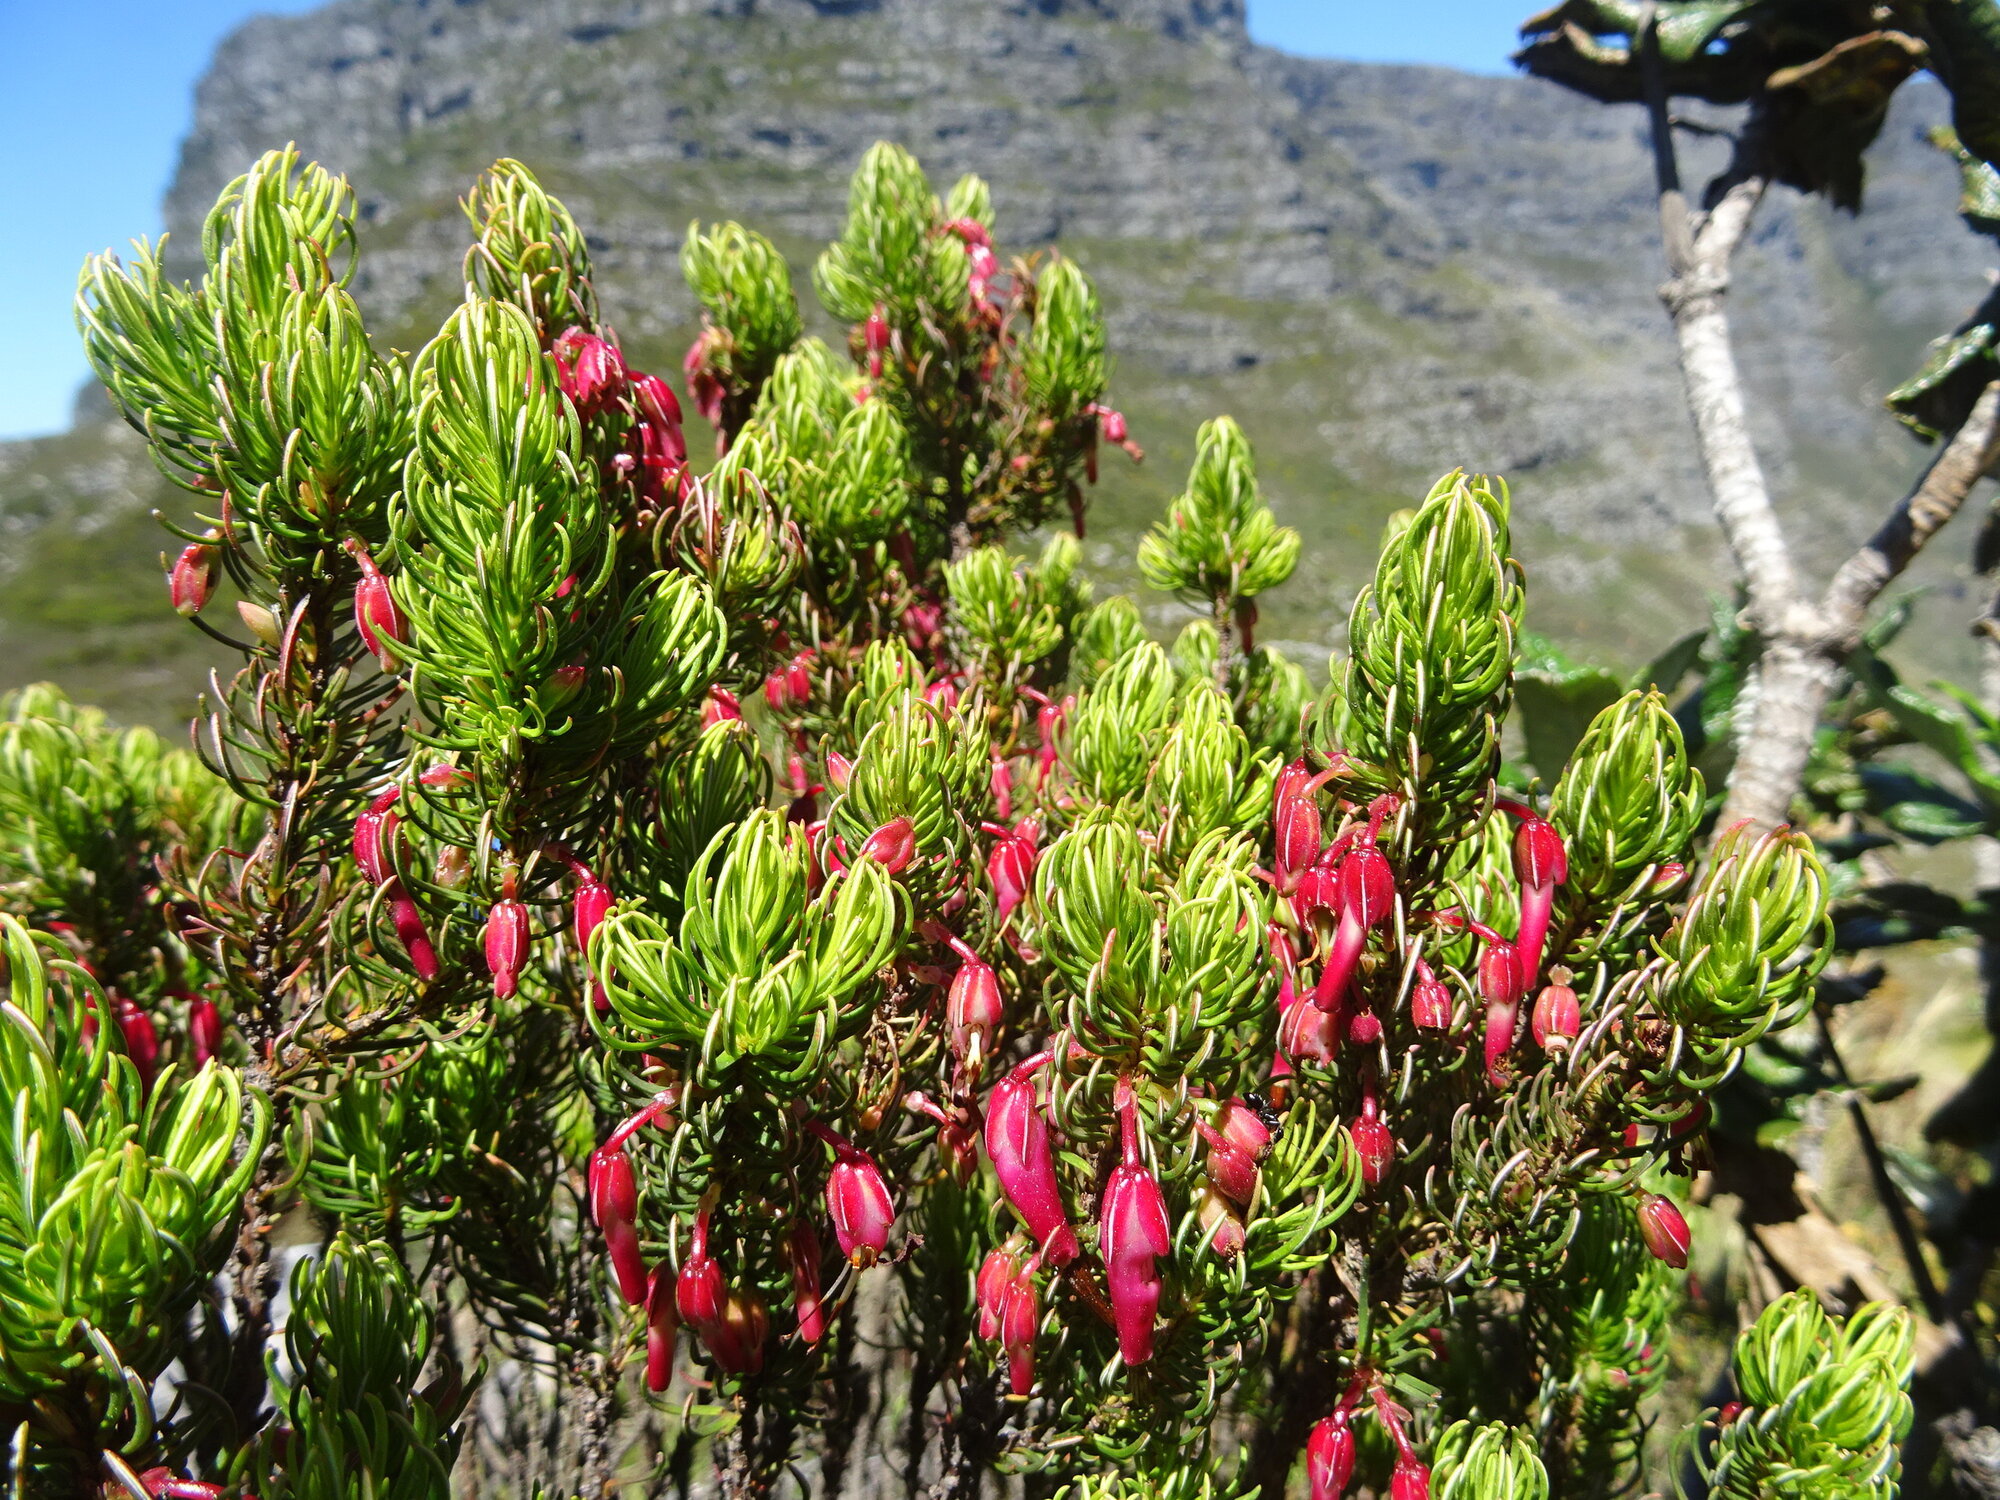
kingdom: Plantae
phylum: Tracheophyta
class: Magnoliopsida
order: Ericales
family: Ericaceae
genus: Erica
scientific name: Erica plukenetii
